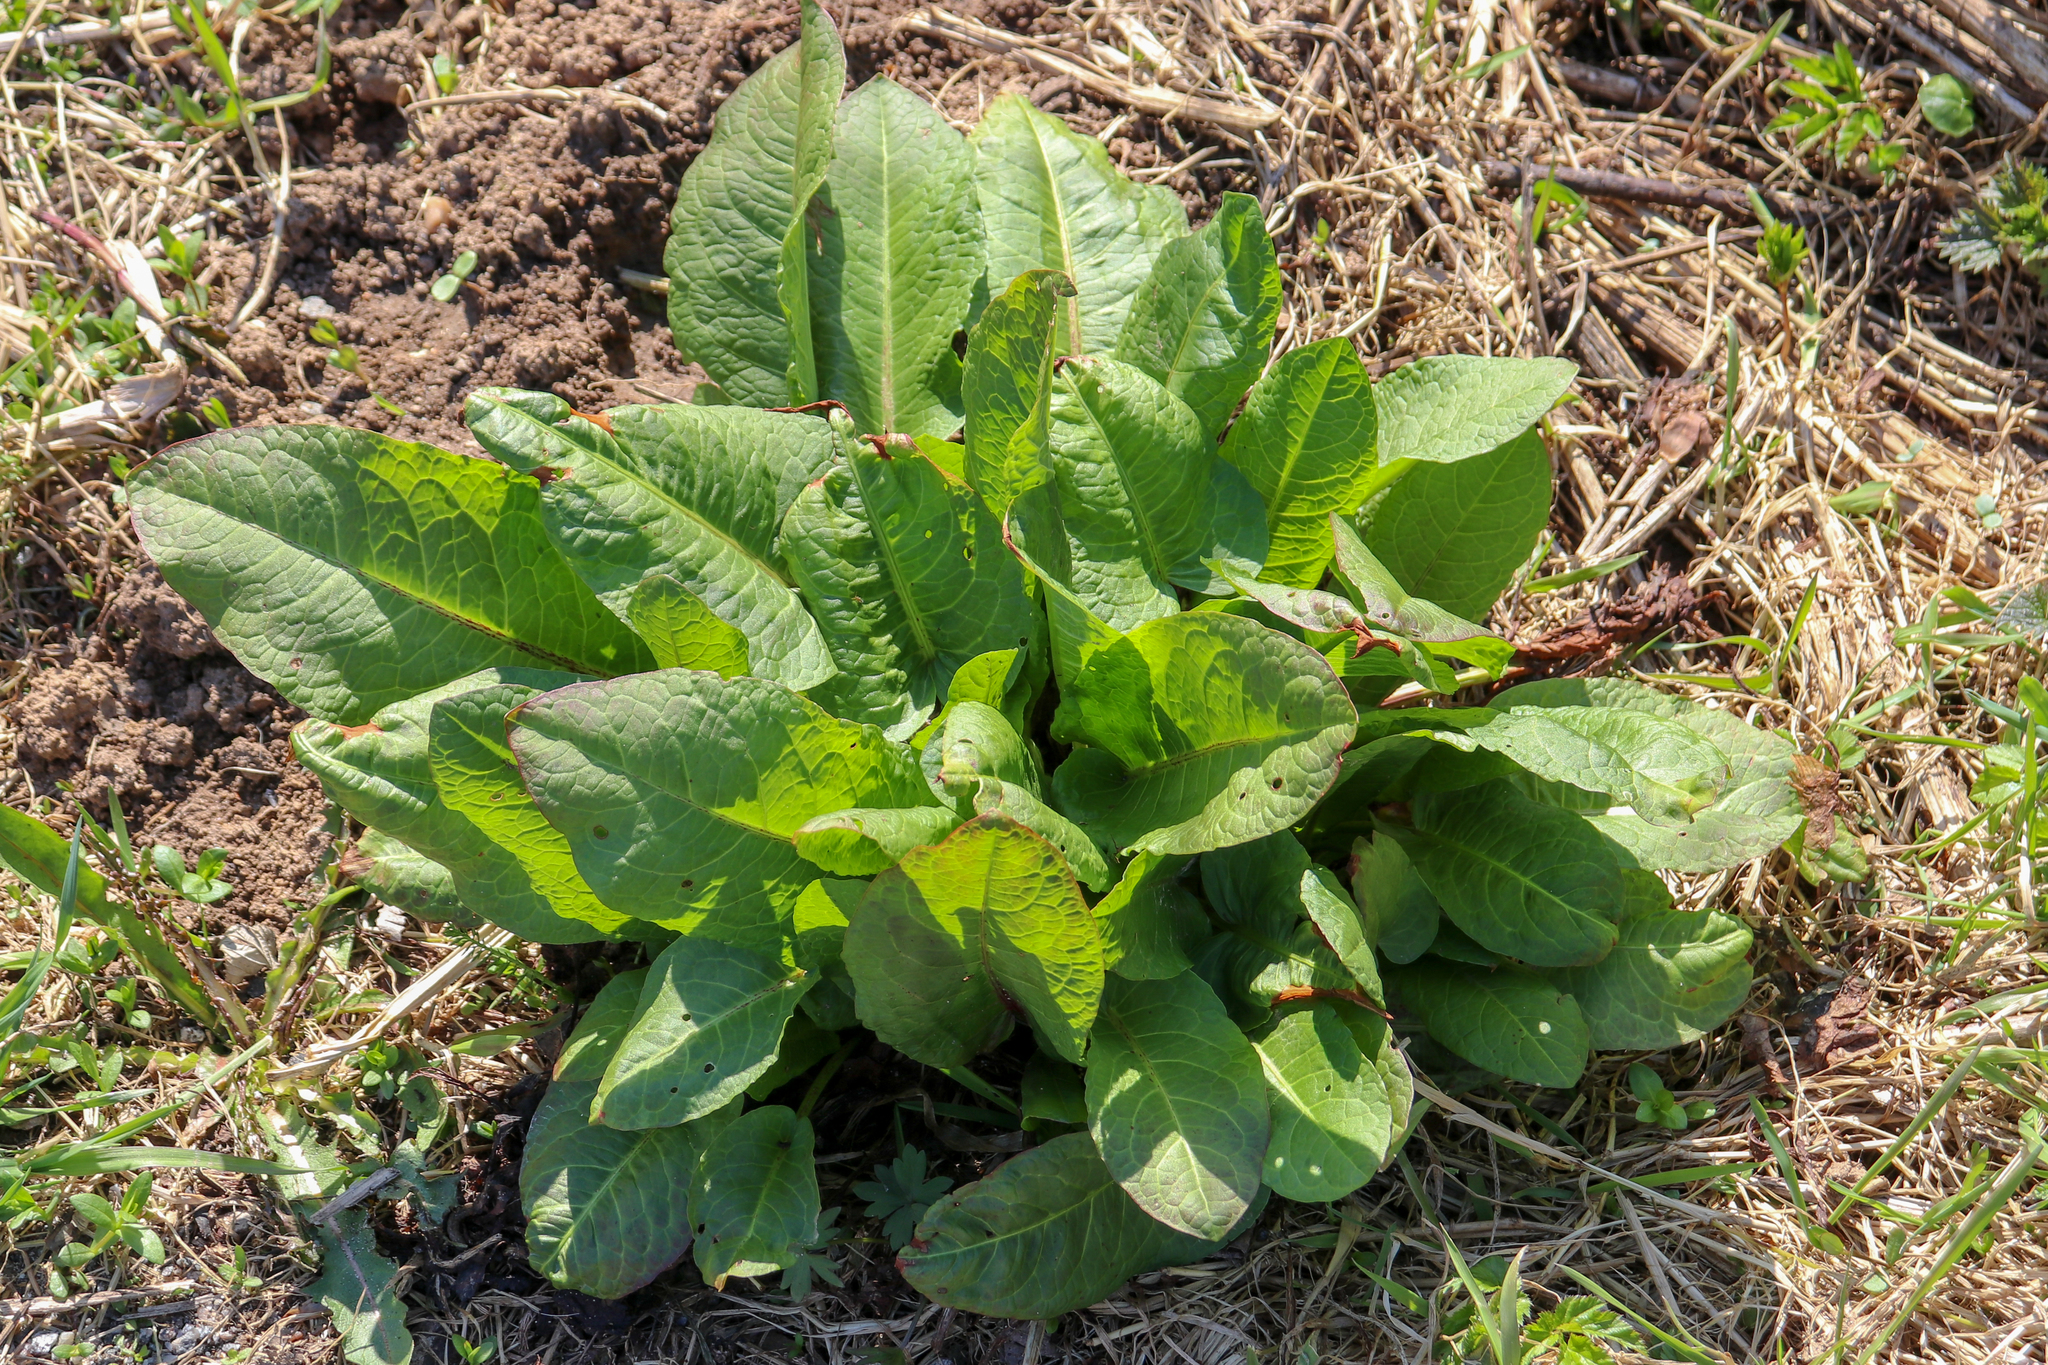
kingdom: Plantae
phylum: Tracheophyta
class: Magnoliopsida
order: Caryophyllales
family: Polygonaceae
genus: Rumex
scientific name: Rumex obtusifolius
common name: Bitter dock
